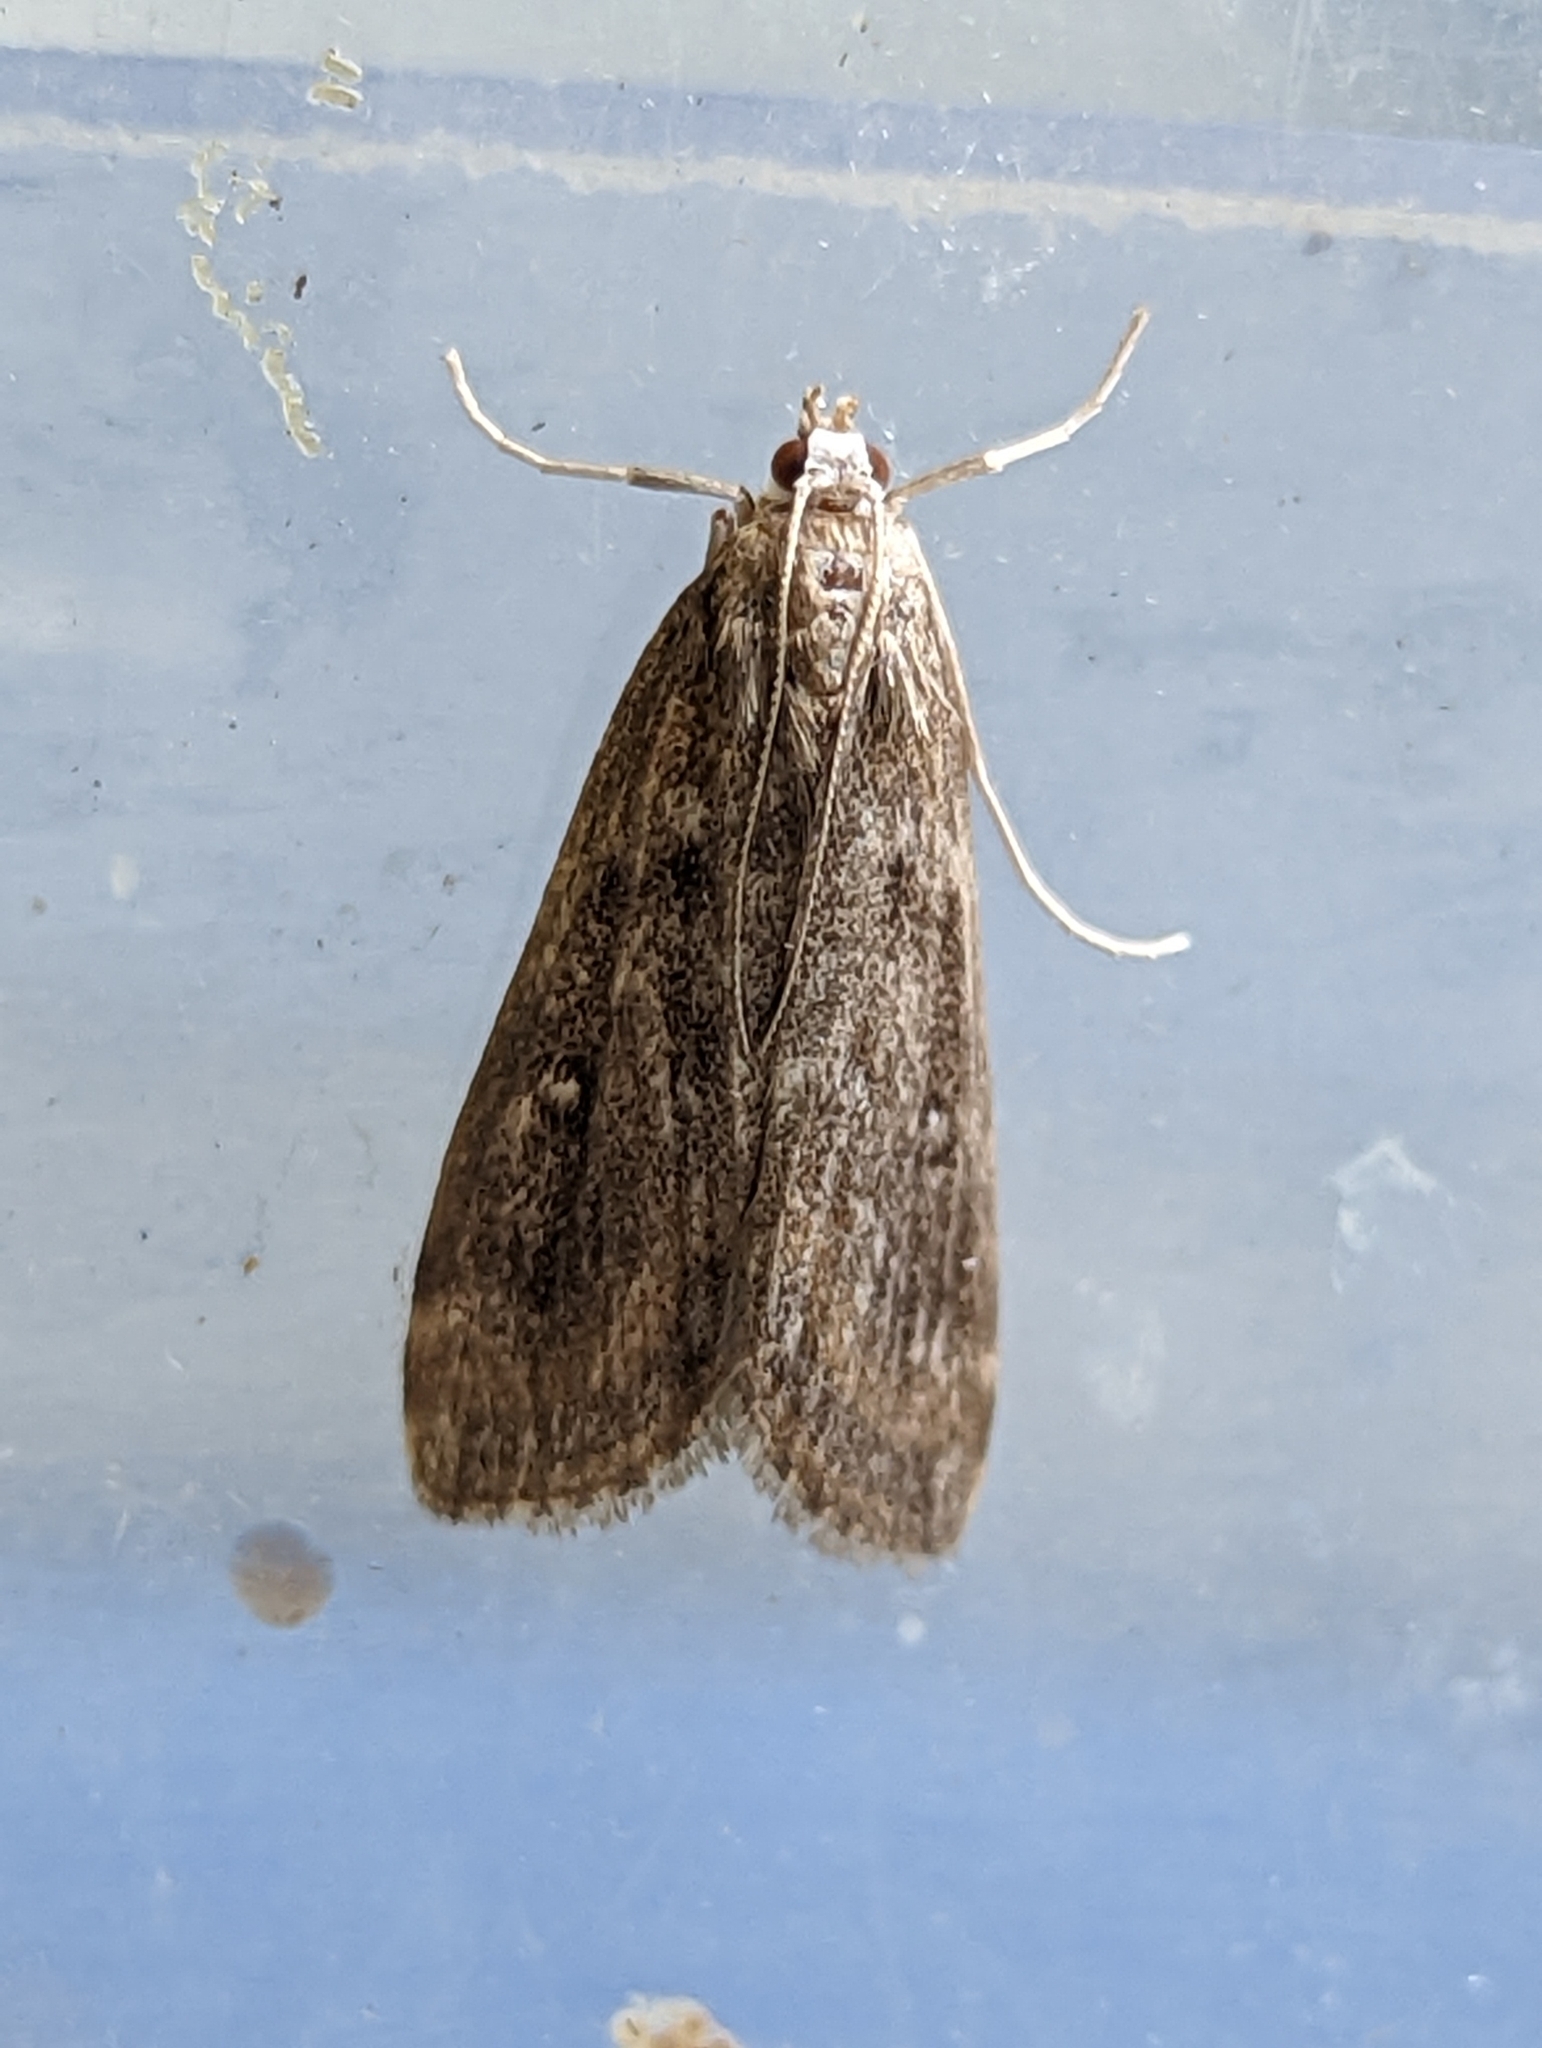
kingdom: Animalia
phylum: Arthropoda
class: Insecta
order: Lepidoptera
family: Crambidae
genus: Parapoynx
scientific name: Parapoynx stratiotata
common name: Ringed china-mark
